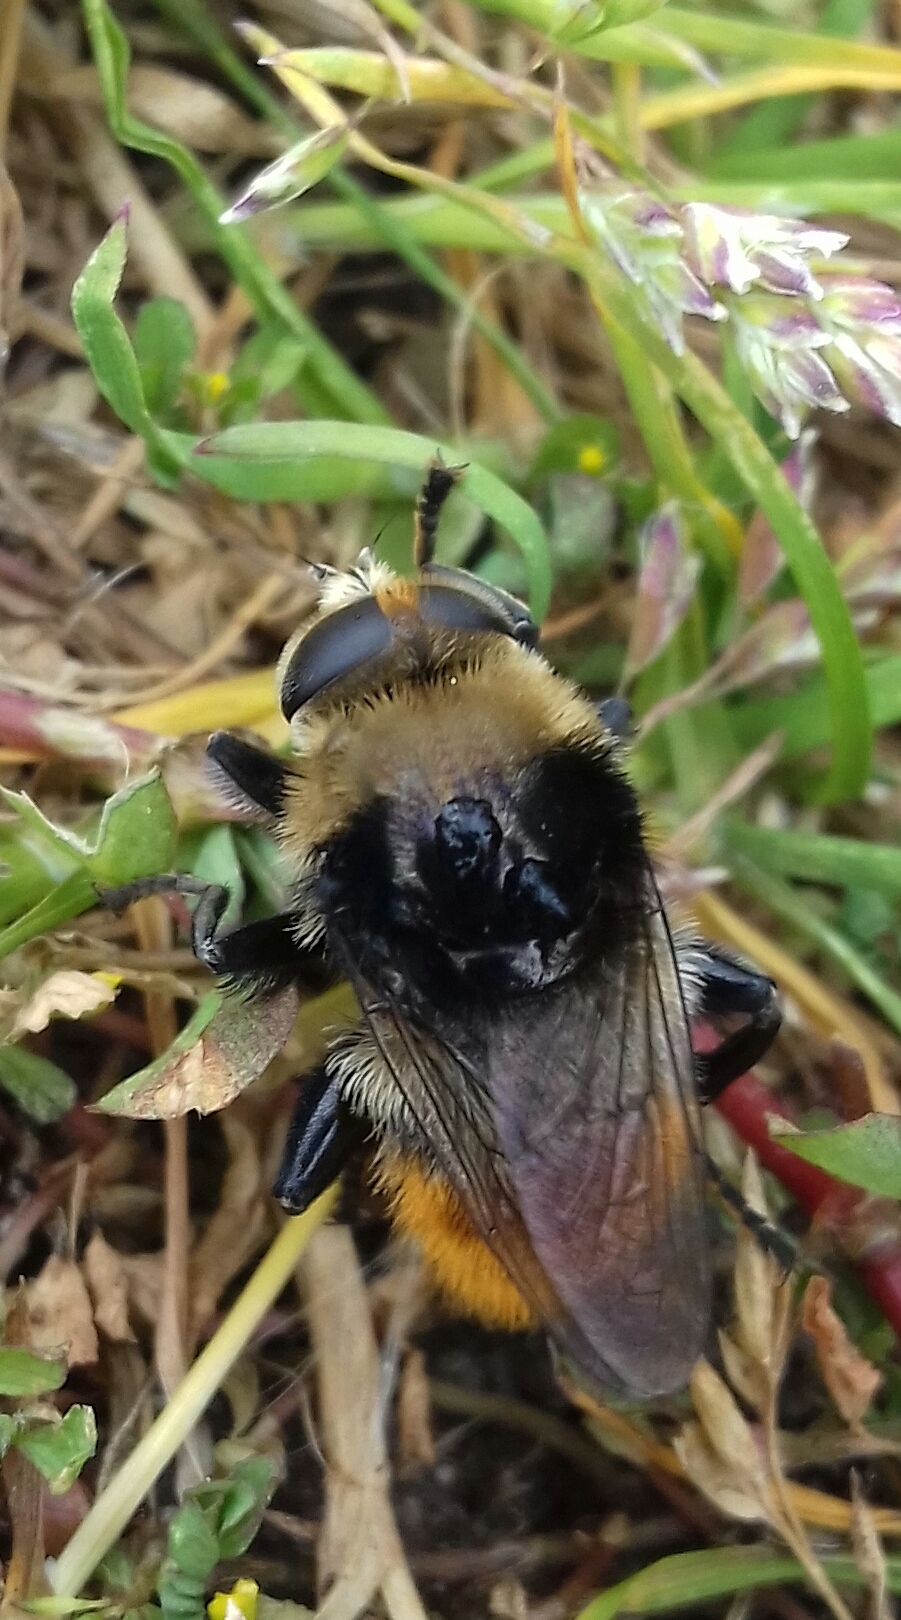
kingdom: Animalia
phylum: Arthropoda
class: Insecta
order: Diptera
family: Syrphidae
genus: Merodon
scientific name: Merodon equestris
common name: Greater bulb-fly
